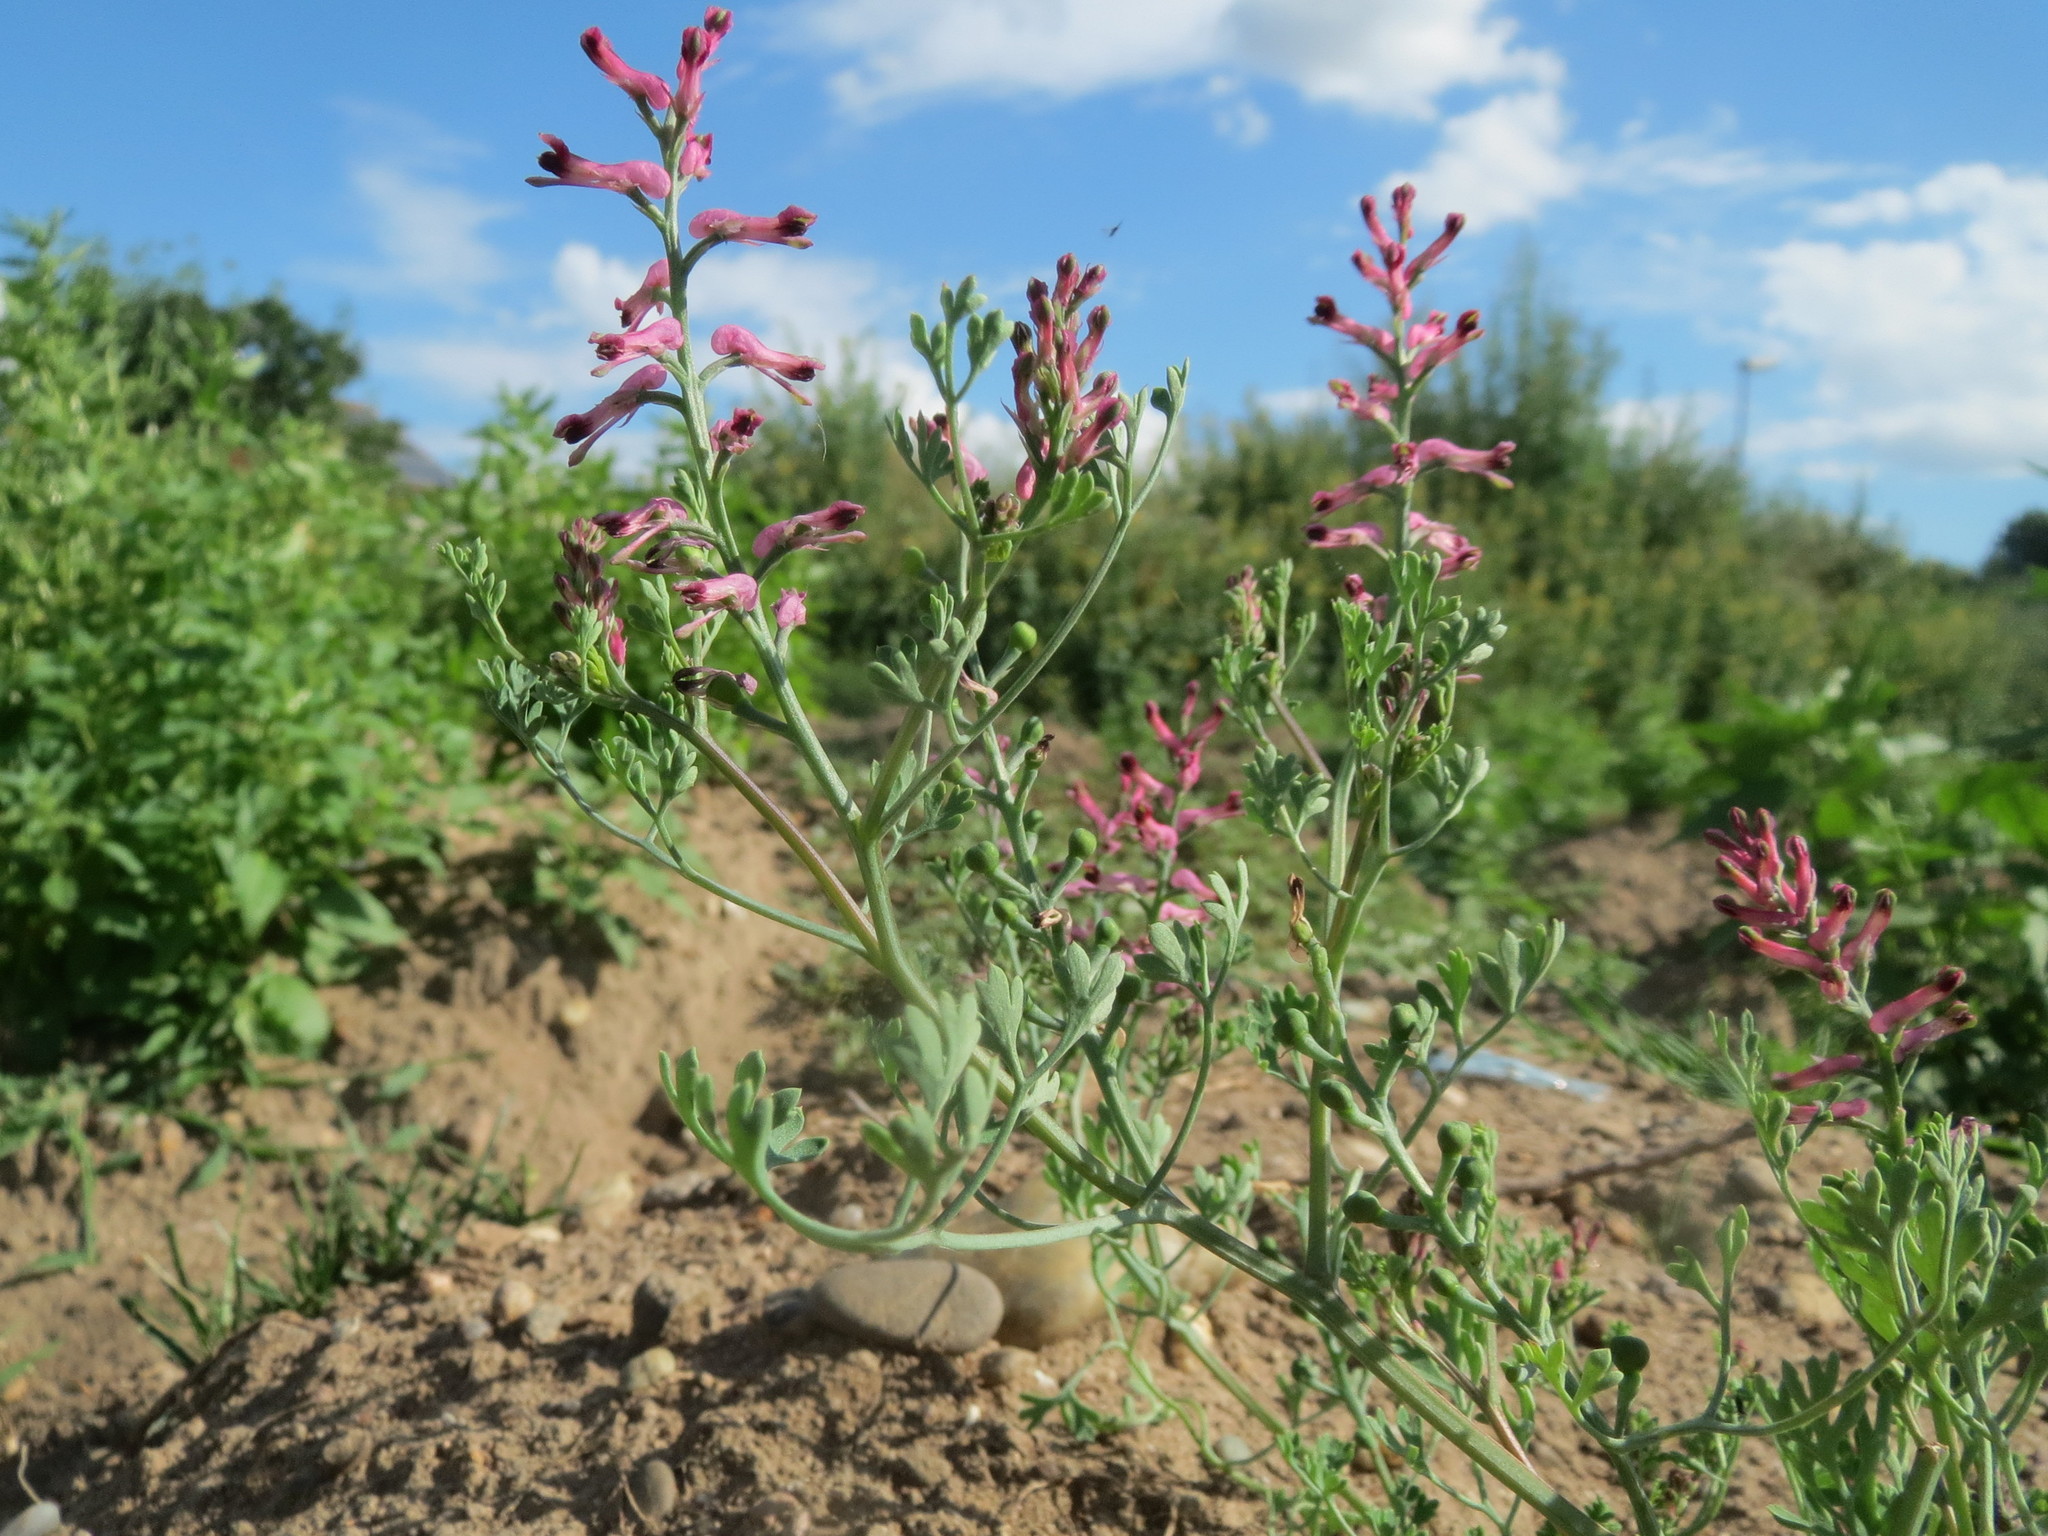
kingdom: Plantae
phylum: Tracheophyta
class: Magnoliopsida
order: Ranunculales
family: Papaveraceae
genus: Fumaria
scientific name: Fumaria officinalis
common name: Common fumitory
